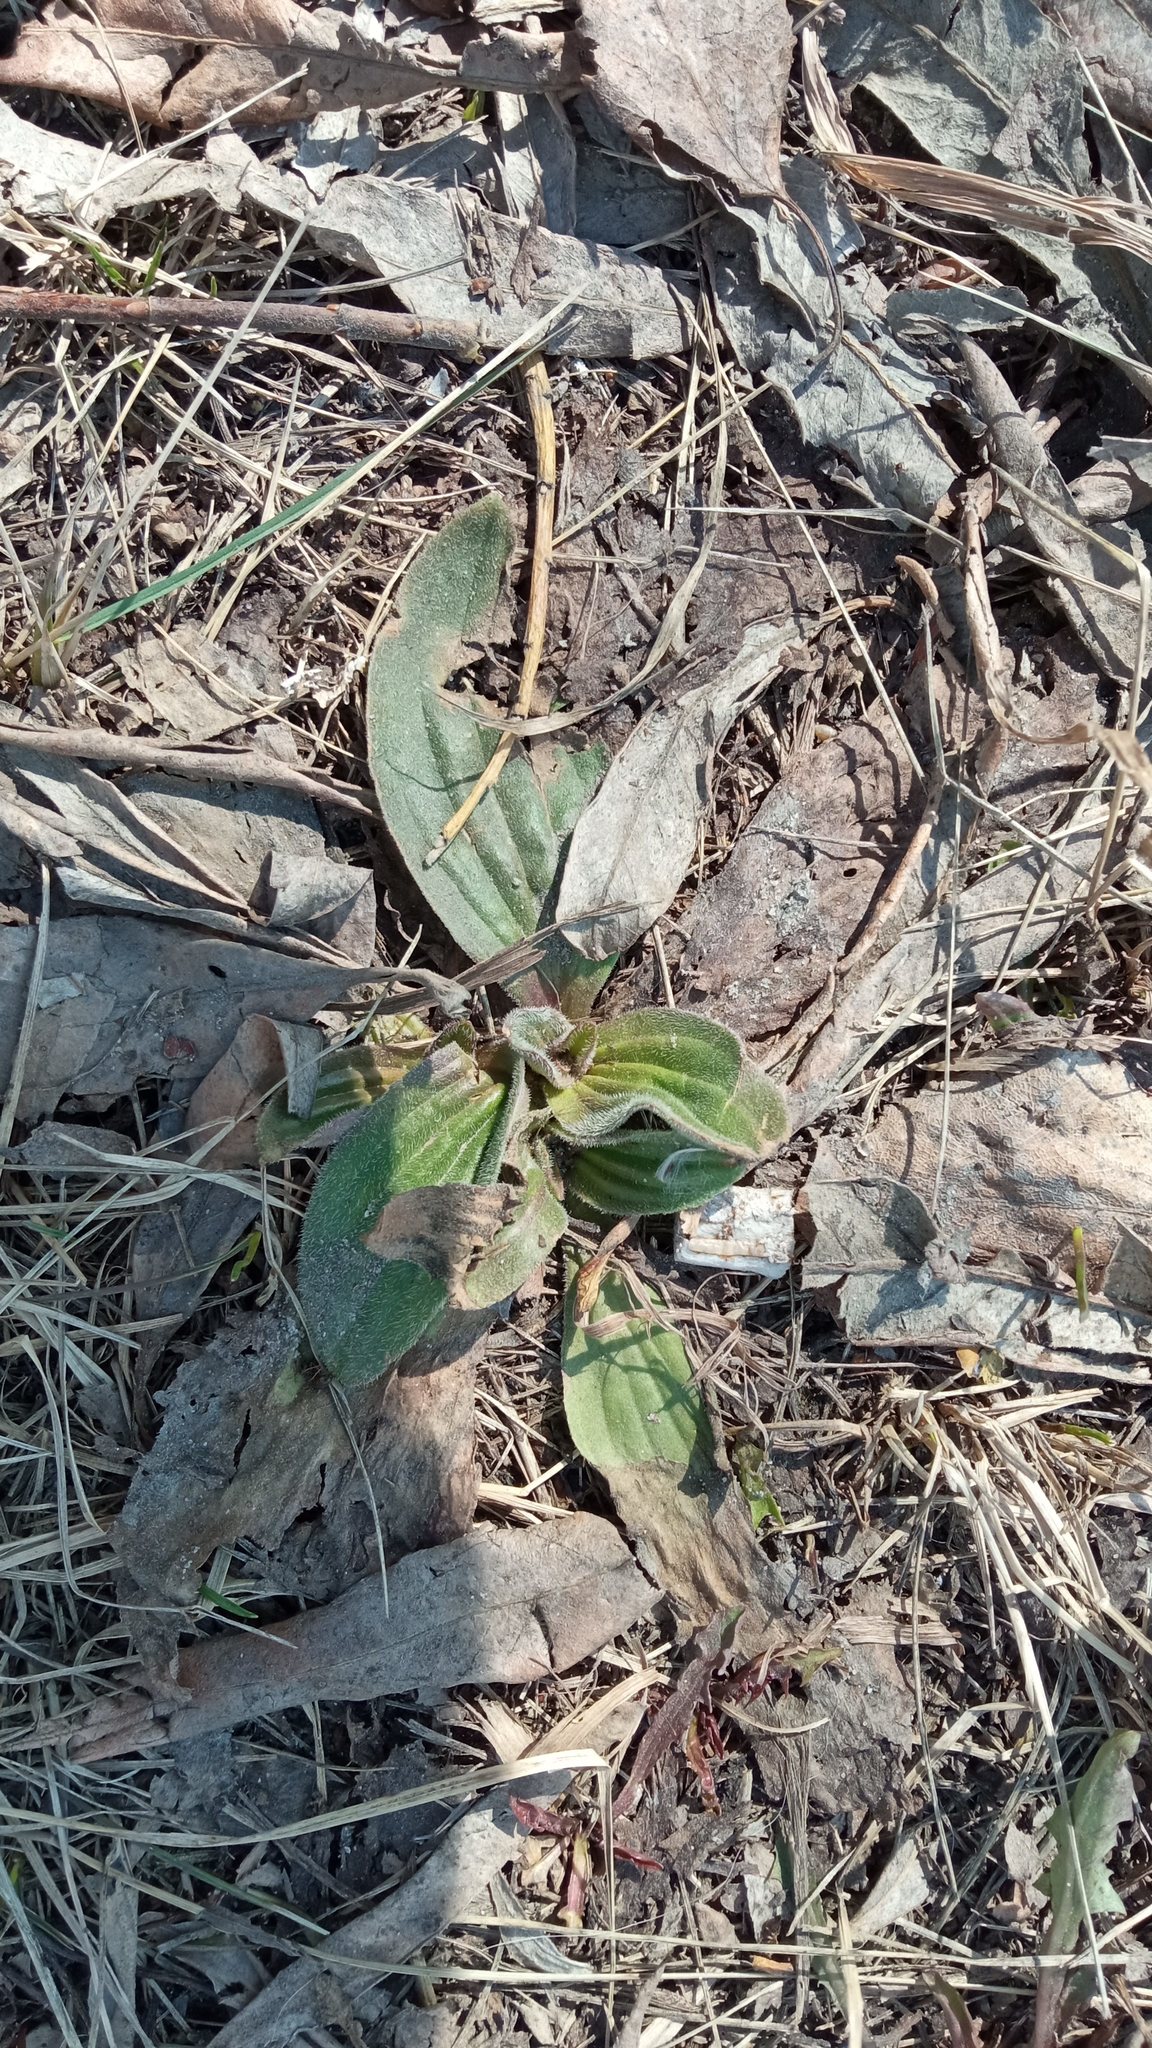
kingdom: Plantae
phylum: Tracheophyta
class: Magnoliopsida
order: Lamiales
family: Plantaginaceae
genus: Plantago
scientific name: Plantago media
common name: Hoary plantain
